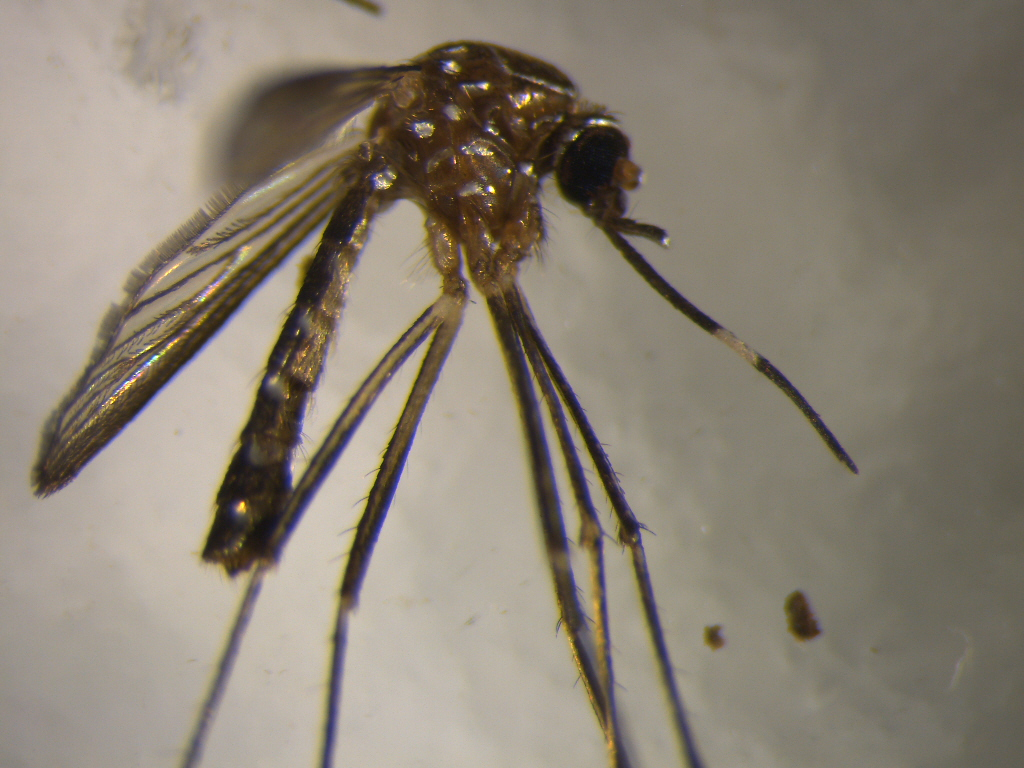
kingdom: Animalia
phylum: Arthropoda
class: Insecta
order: Diptera
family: Culicidae
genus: Aedes
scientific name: Aedes notoscriptus
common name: Australian backyard mosquito
